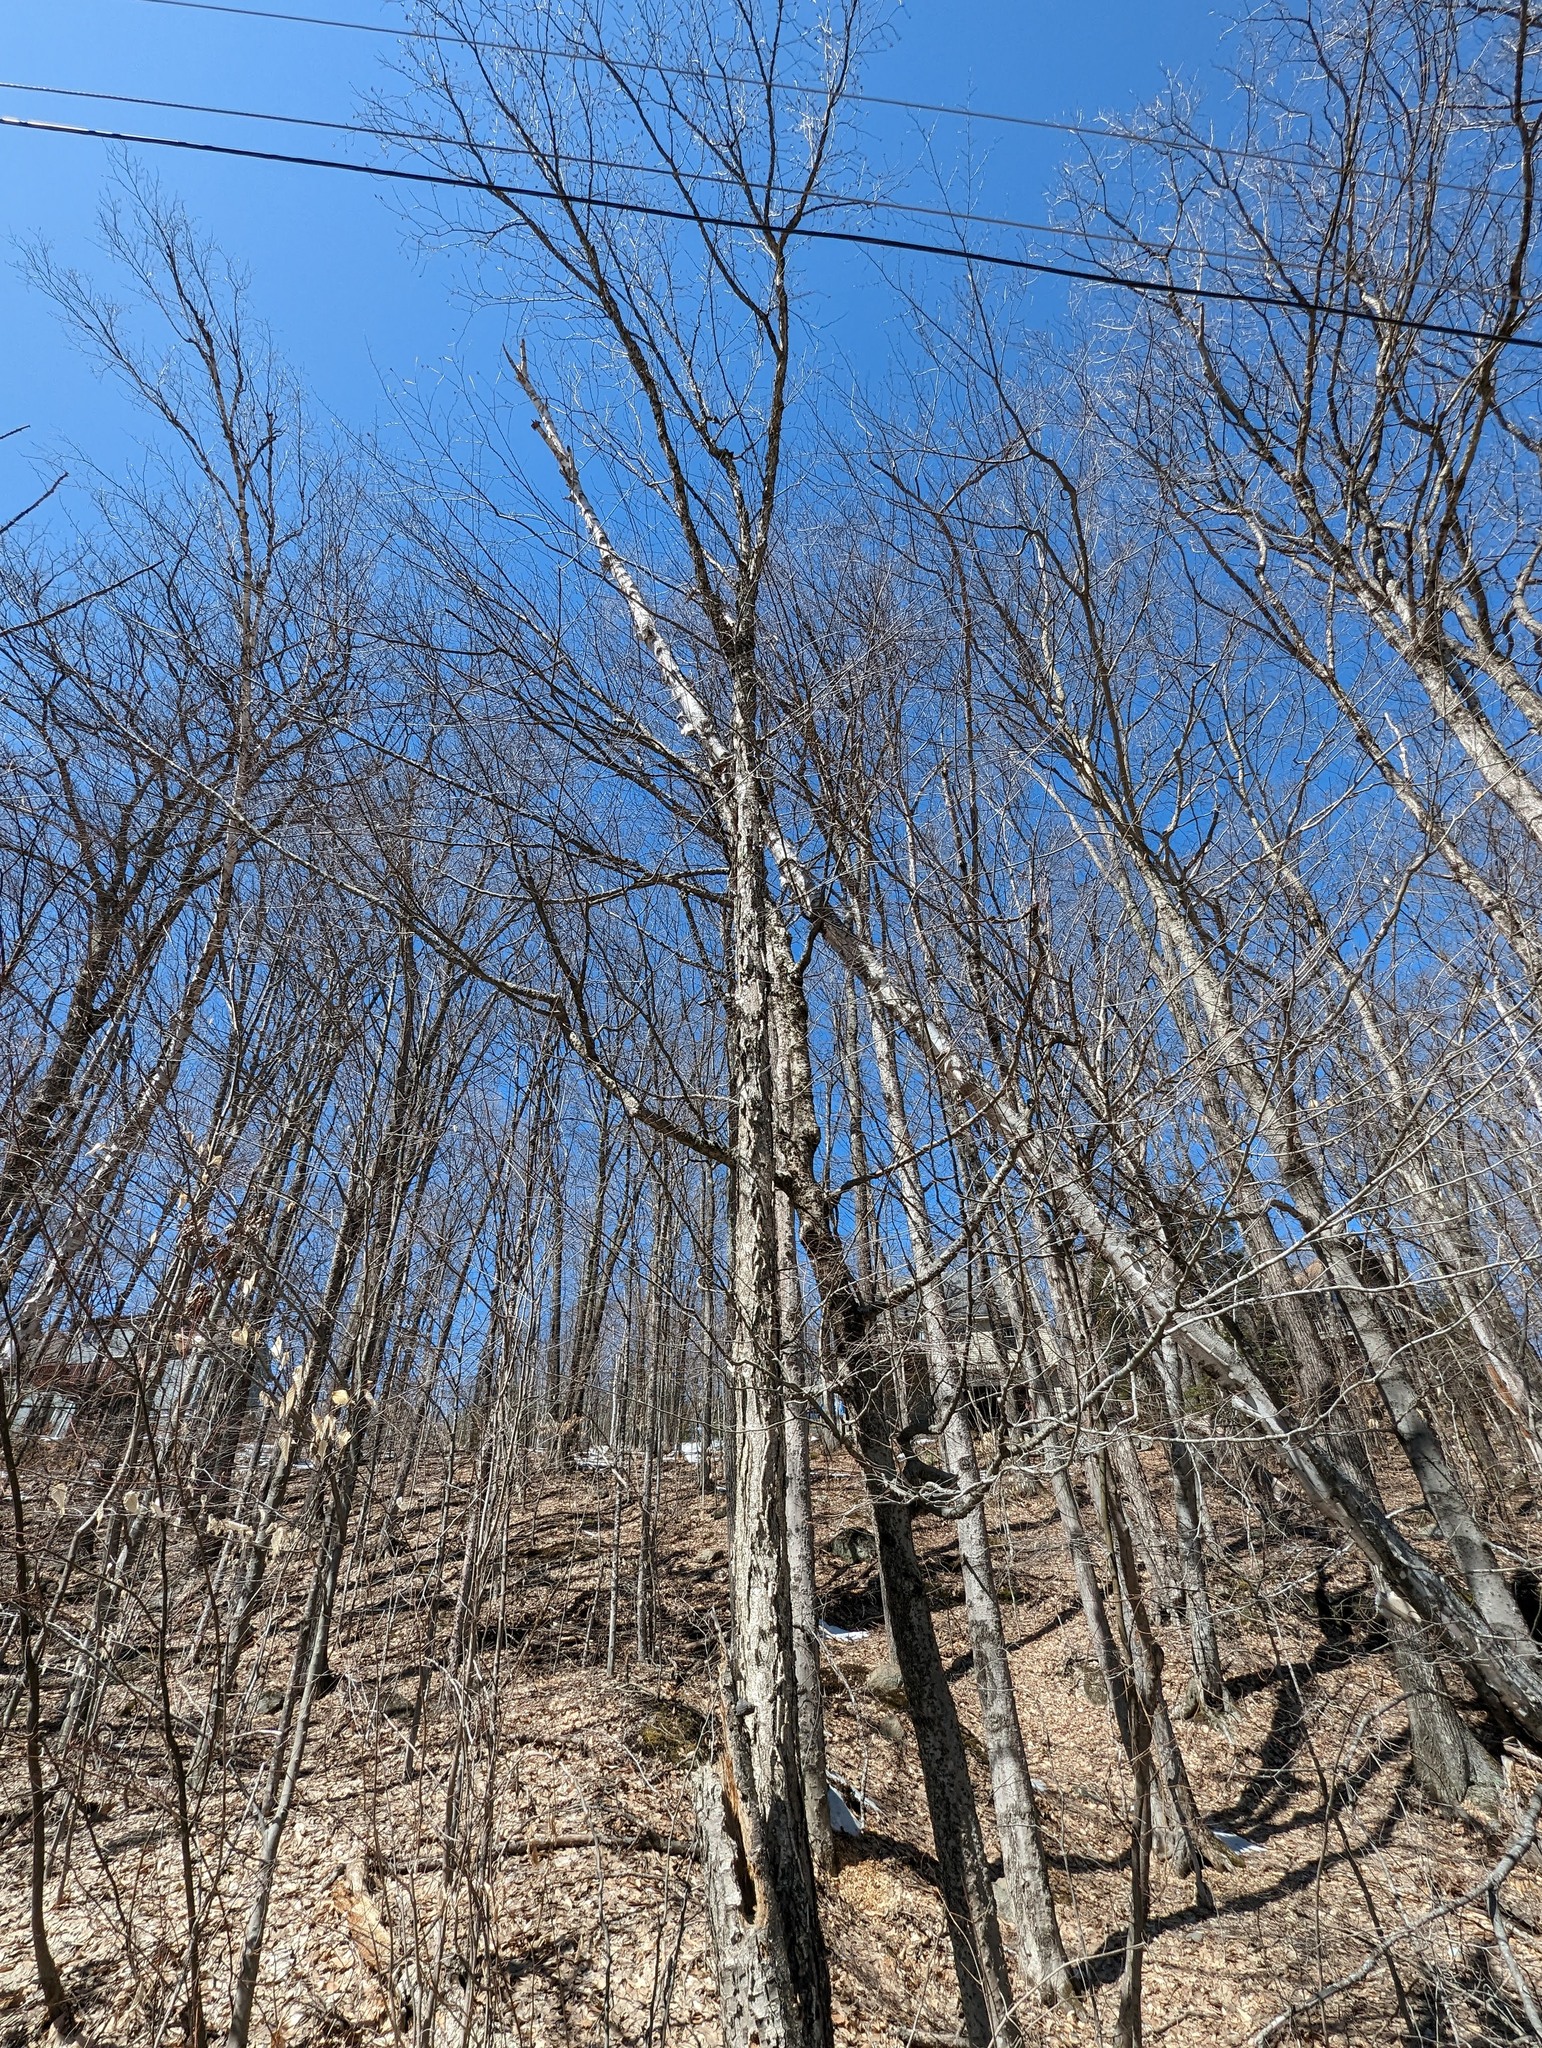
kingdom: Plantae
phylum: Tracheophyta
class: Magnoliopsida
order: Fagales
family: Betulaceae
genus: Betula
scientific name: Betula alleghaniensis
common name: Yellow birch
